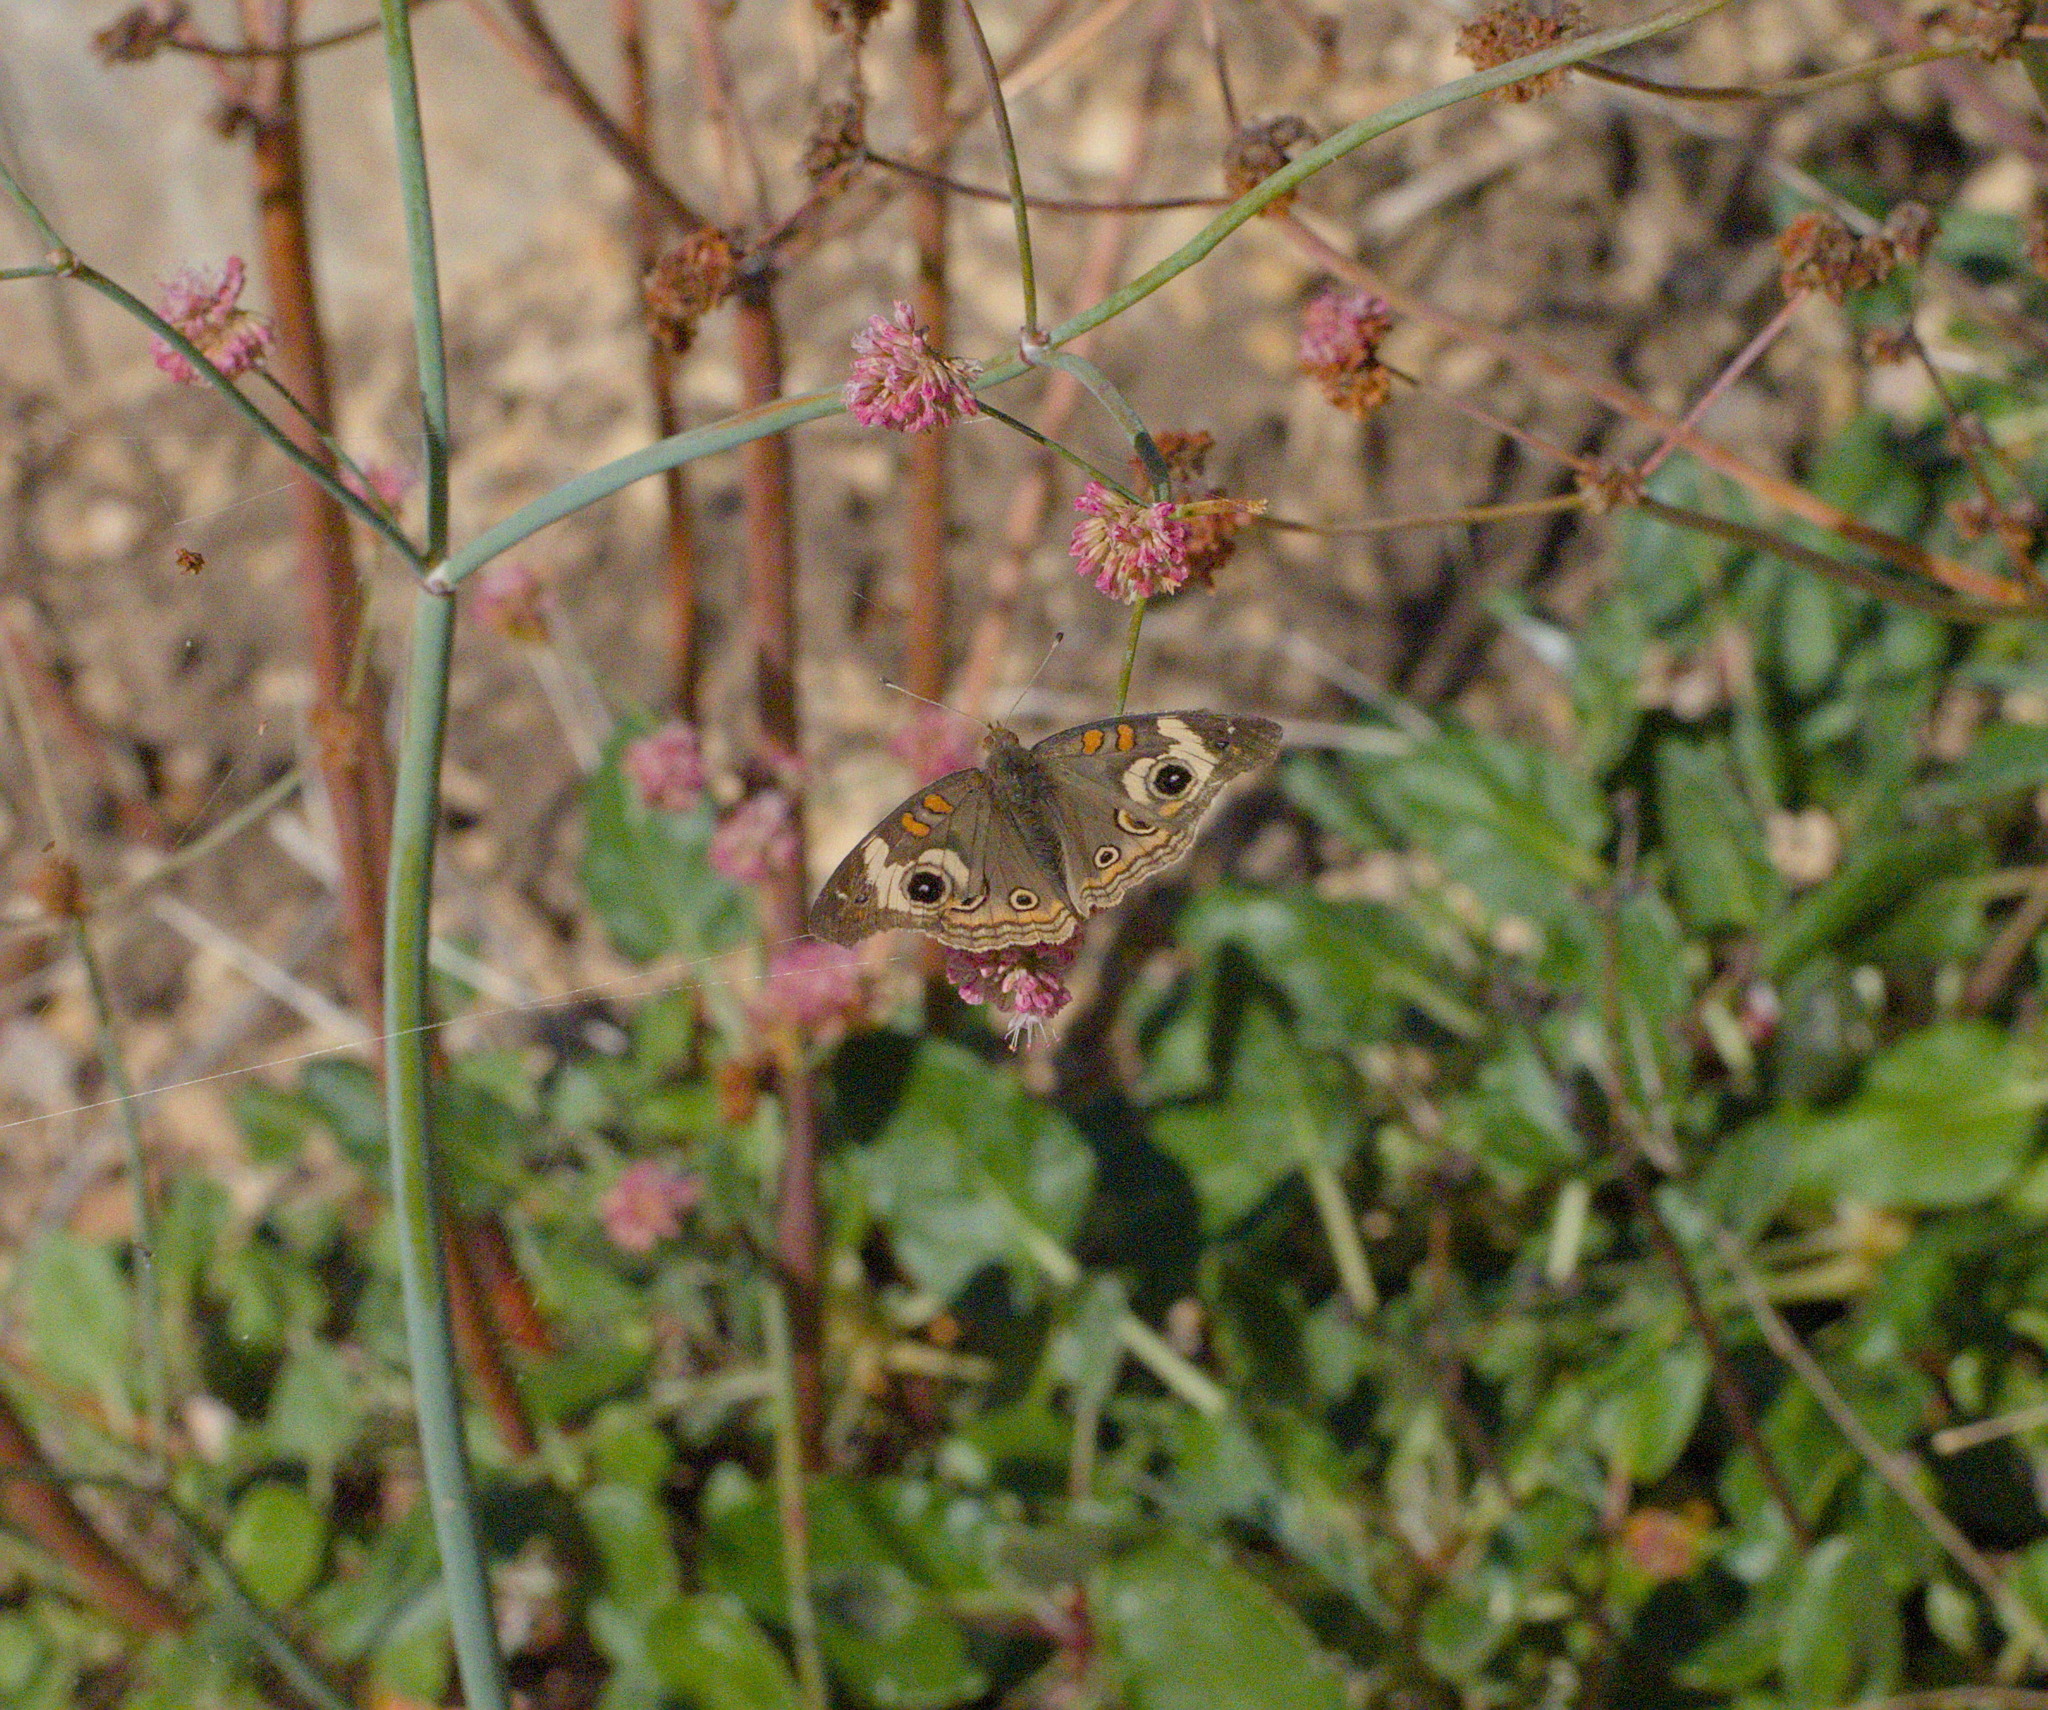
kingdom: Animalia
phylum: Arthropoda
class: Insecta
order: Lepidoptera
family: Nymphalidae
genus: Junonia
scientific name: Junonia grisea
